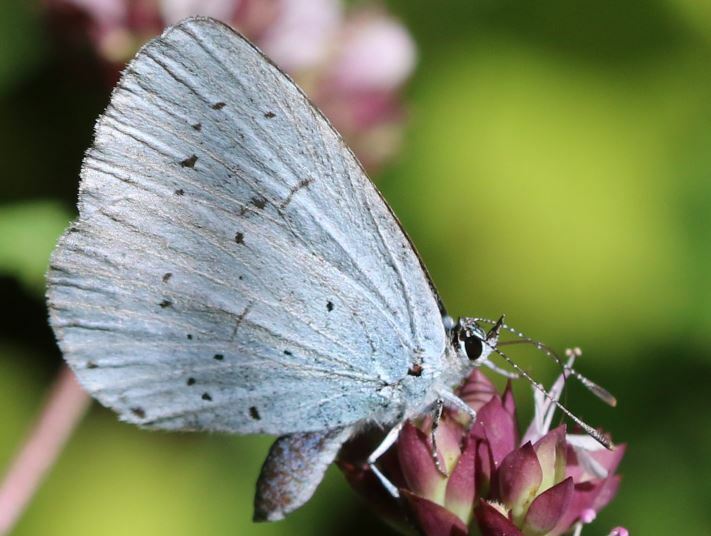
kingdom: Animalia
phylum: Arthropoda
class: Insecta
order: Lepidoptera
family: Lycaenidae
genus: Celastrina
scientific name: Celastrina argiolus
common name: Holly blue
